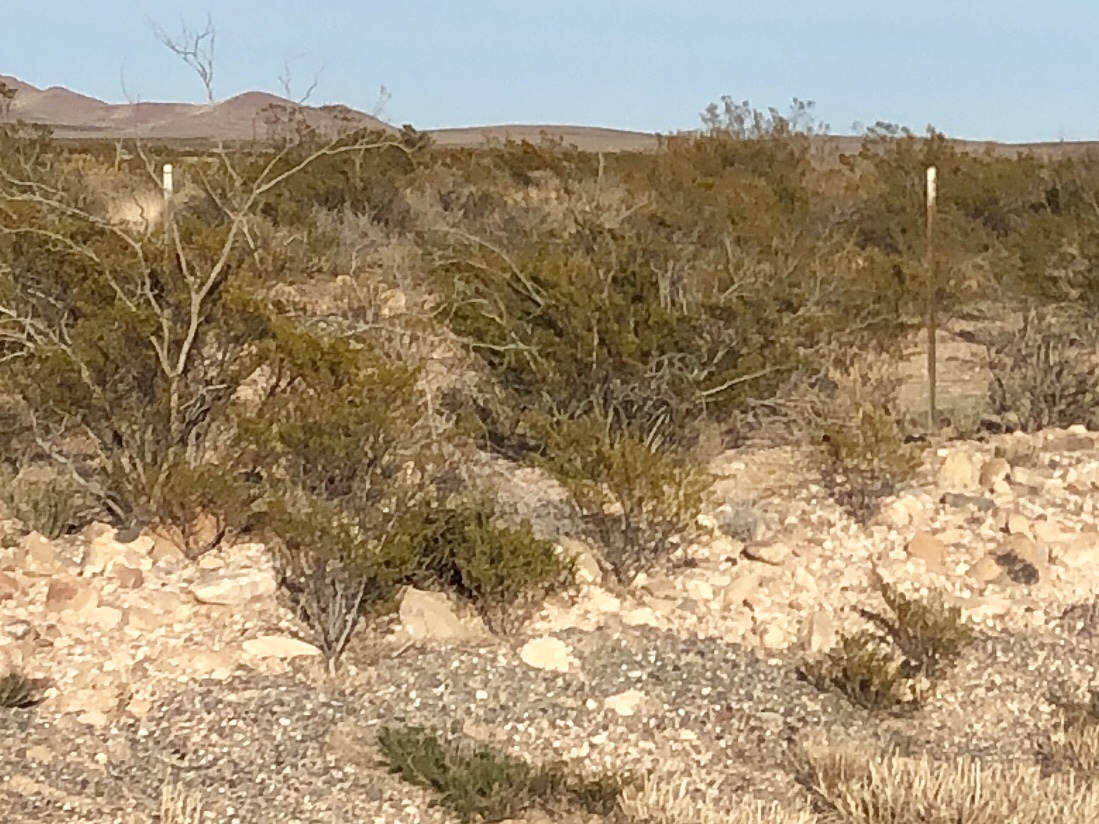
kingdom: Plantae
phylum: Tracheophyta
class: Magnoliopsida
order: Zygophyllales
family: Zygophyllaceae
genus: Larrea
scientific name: Larrea tridentata
